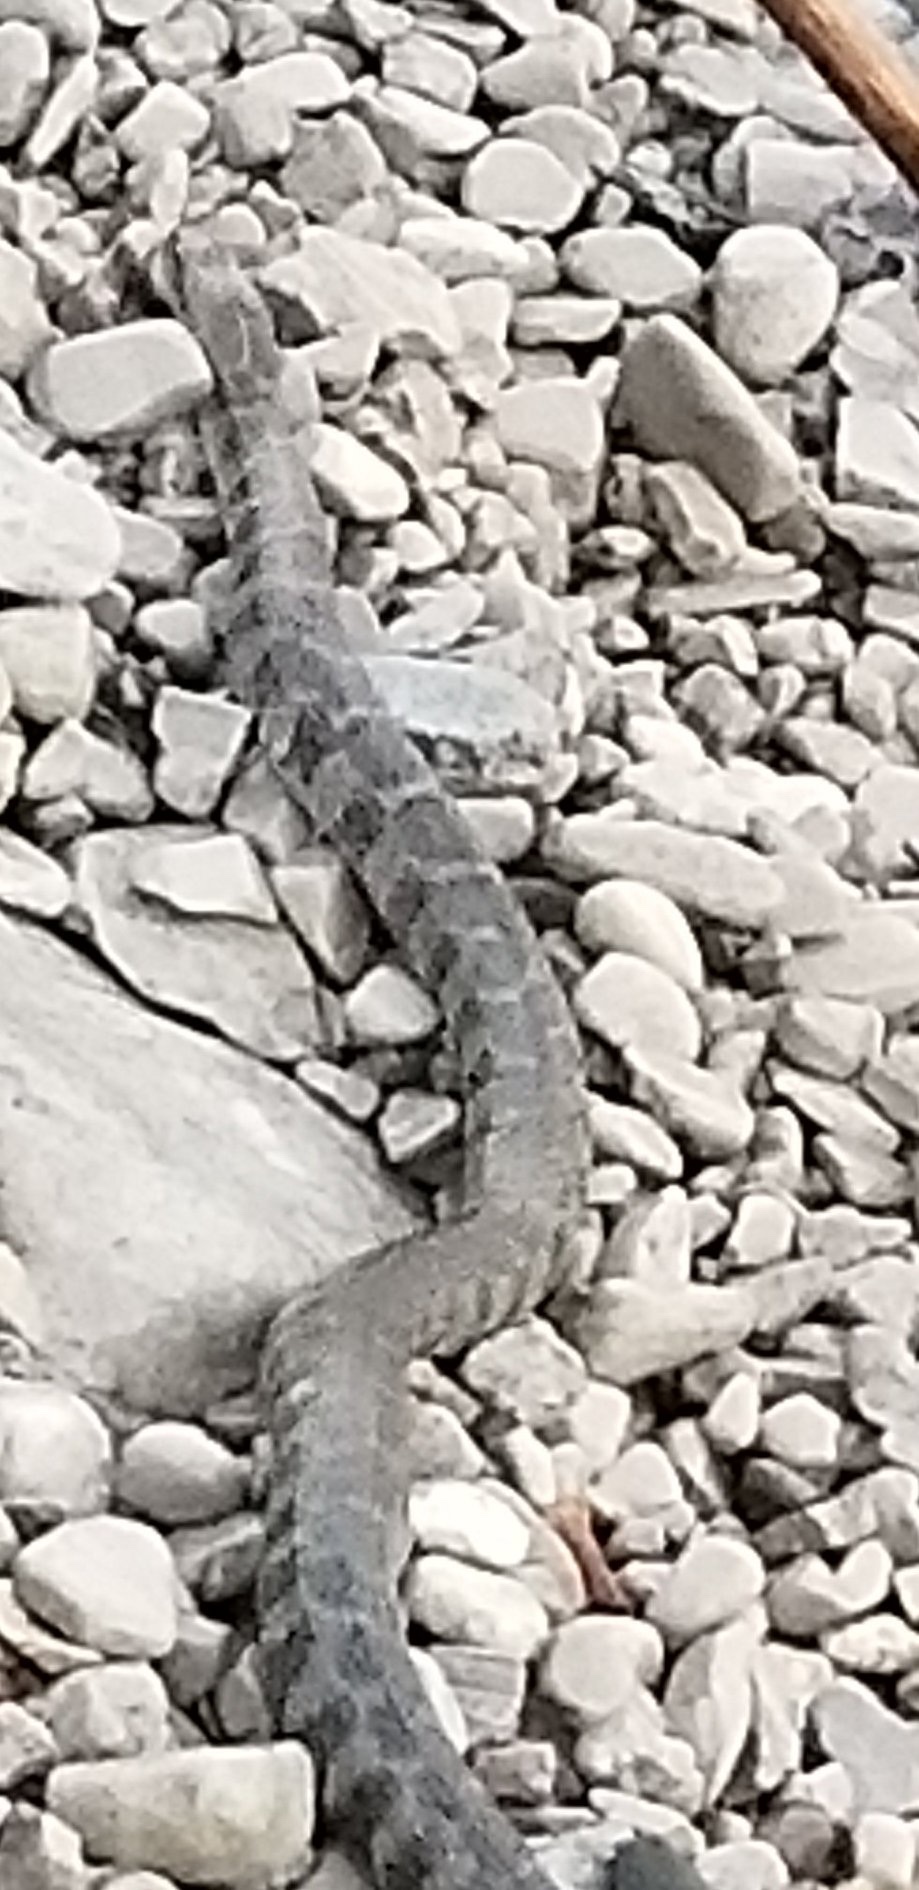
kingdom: Animalia
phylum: Chordata
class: Squamata
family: Colubridae
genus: Nerodia
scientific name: Nerodia sipedon
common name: Northern water snake
